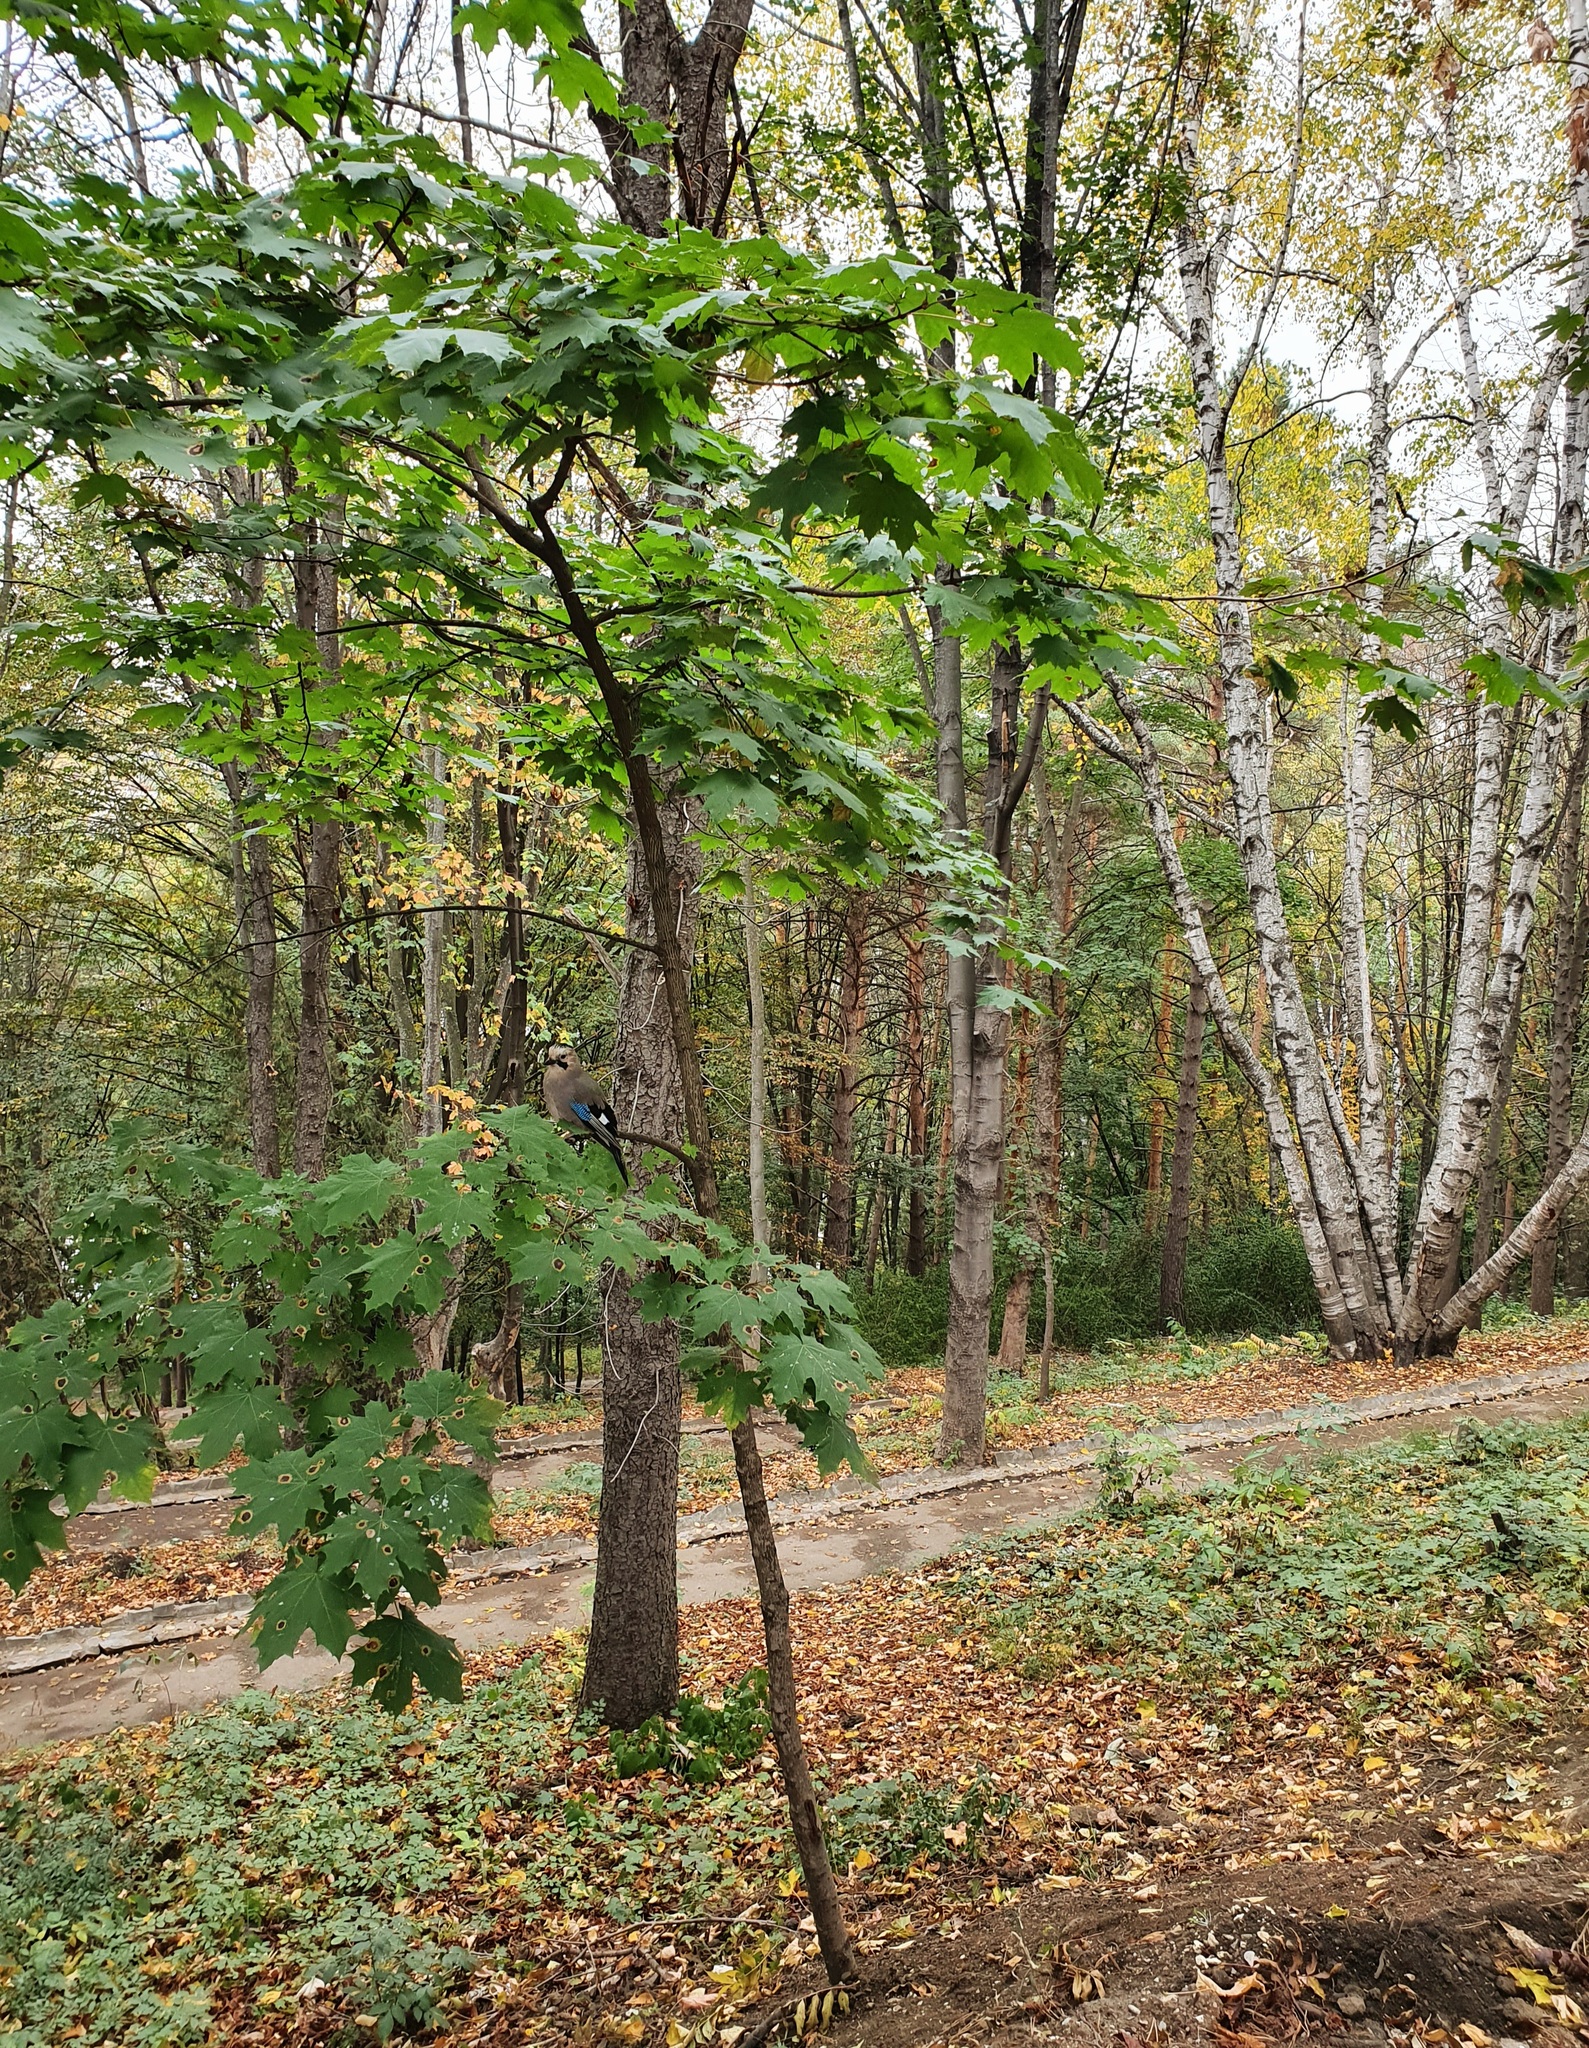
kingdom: Plantae
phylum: Tracheophyta
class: Magnoliopsida
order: Sapindales
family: Sapindaceae
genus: Acer
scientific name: Acer platanoides
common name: Norway maple
